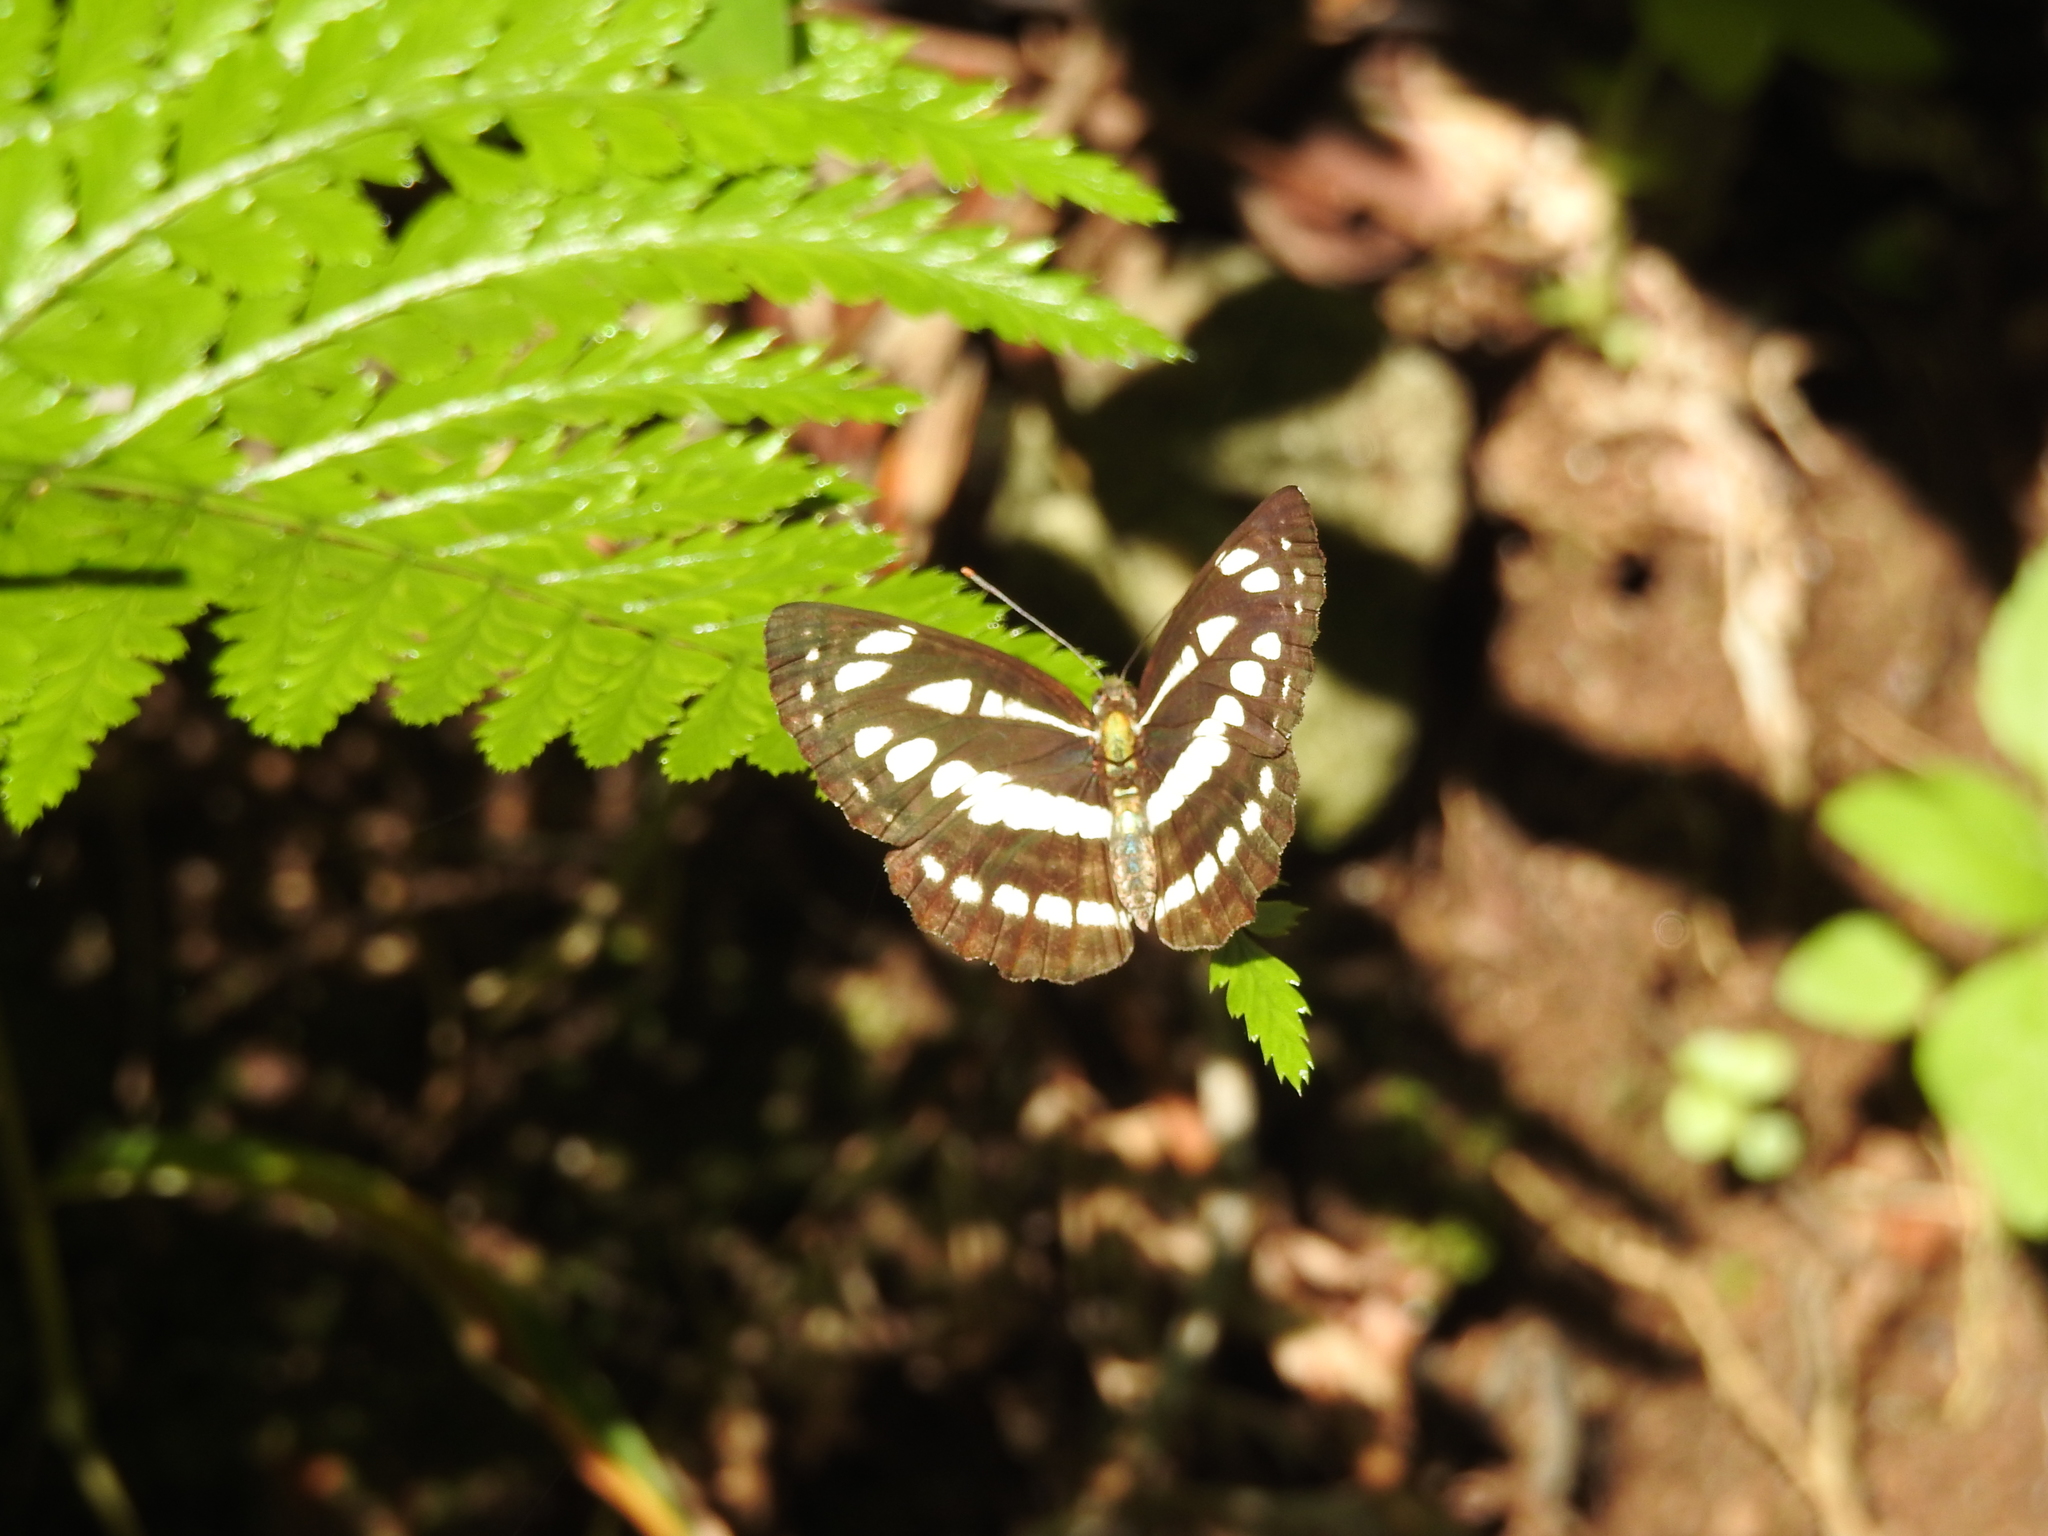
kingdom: Animalia
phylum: Arthropoda
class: Insecta
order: Lepidoptera
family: Nymphalidae
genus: Neptis
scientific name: Neptis hylas
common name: Common sailer
